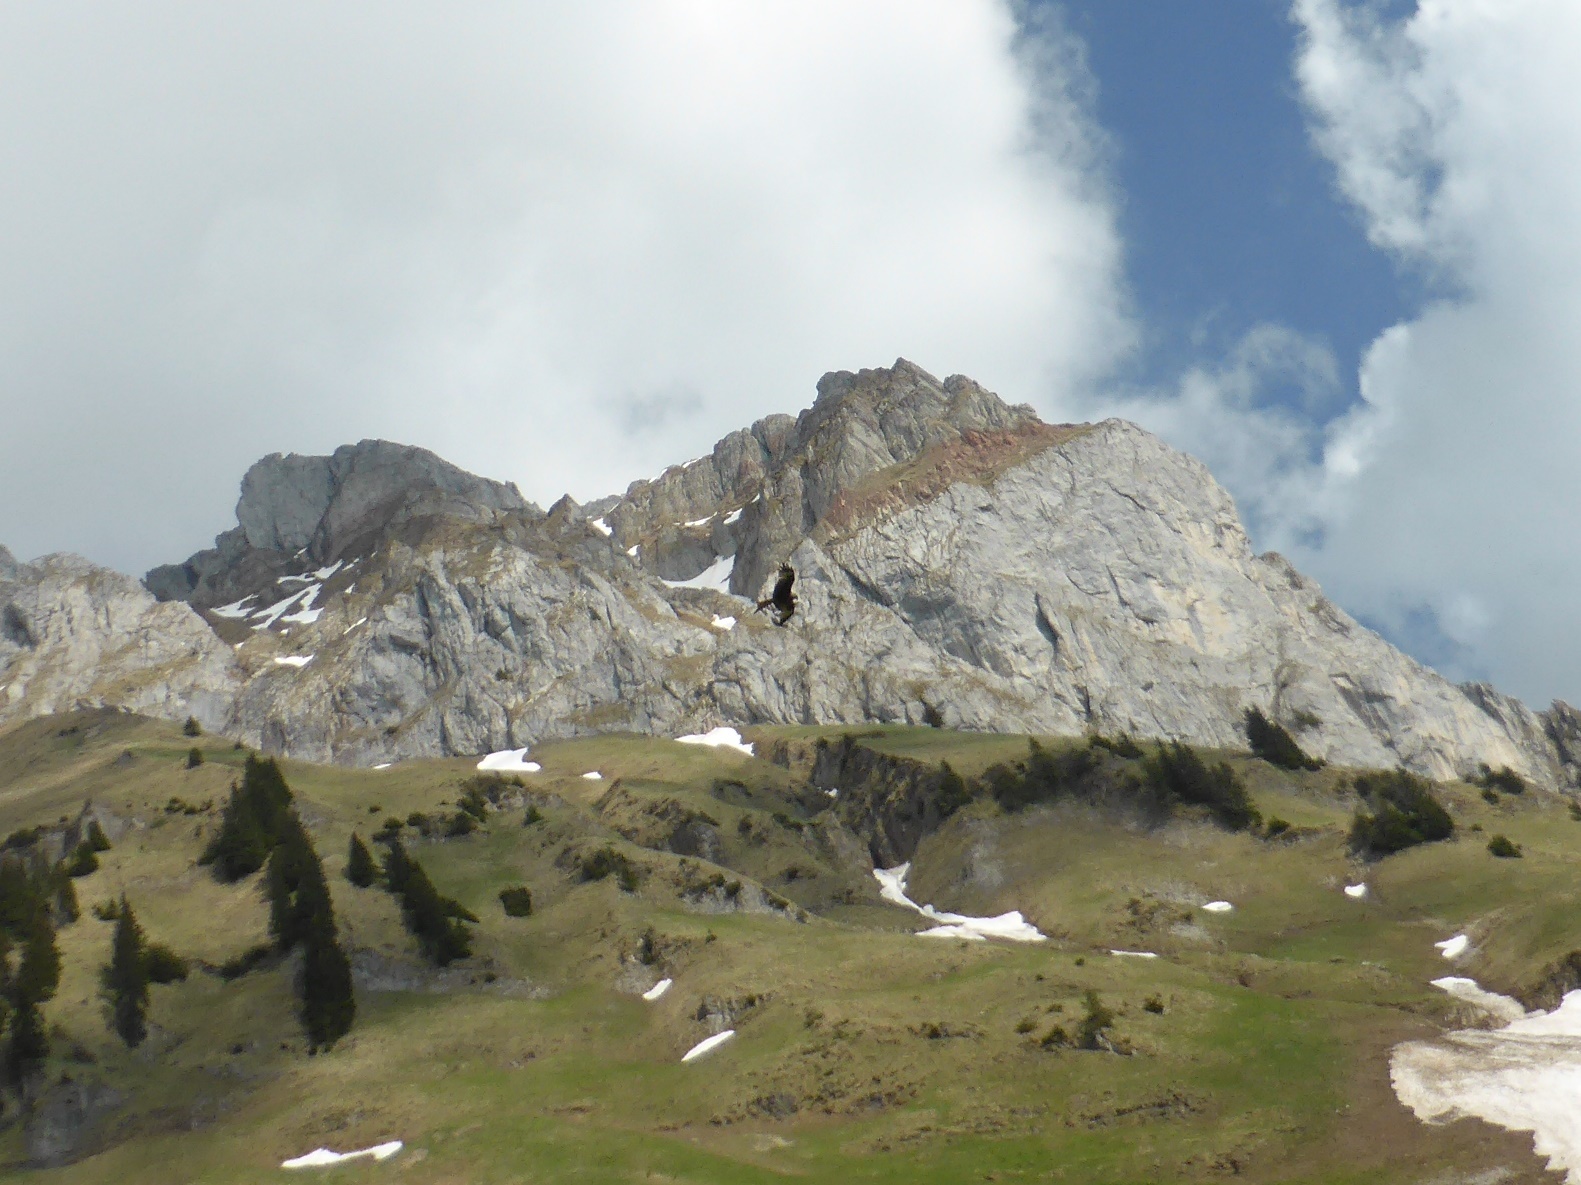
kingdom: Animalia
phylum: Chordata
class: Aves
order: Accipitriformes
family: Accipitridae
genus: Milvus
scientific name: Milvus milvus
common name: Red kite
